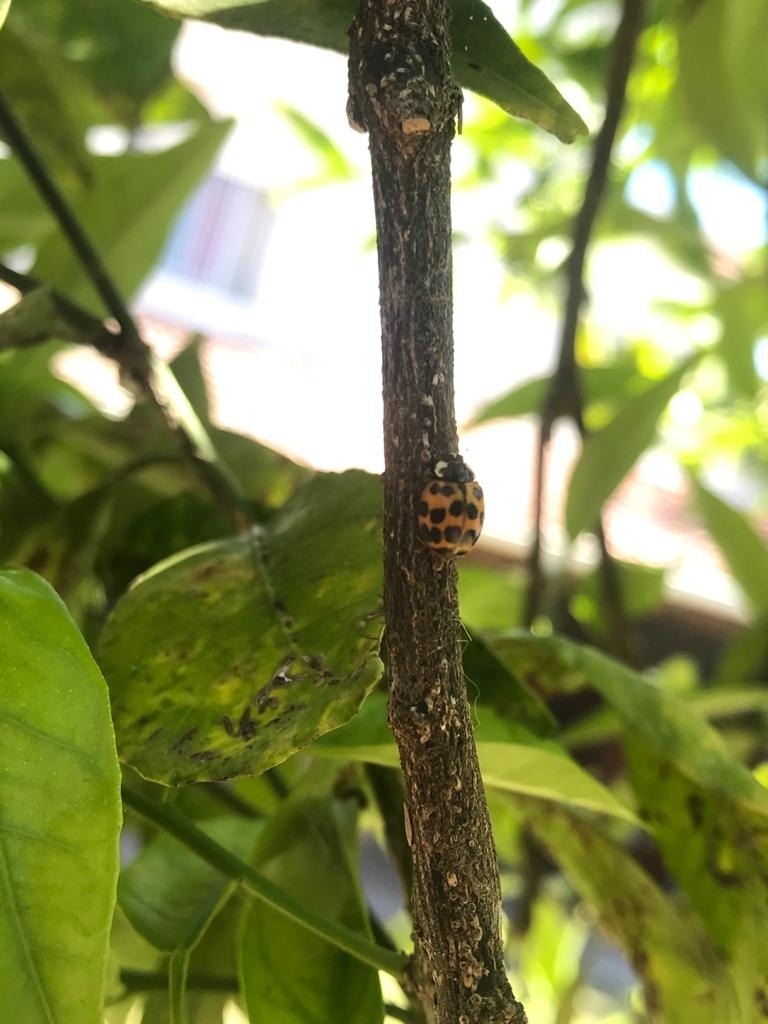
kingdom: Animalia
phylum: Arthropoda
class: Insecta
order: Coleoptera
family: Coccinellidae
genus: Harmonia
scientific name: Harmonia axyridis
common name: Harlequin ladybird
